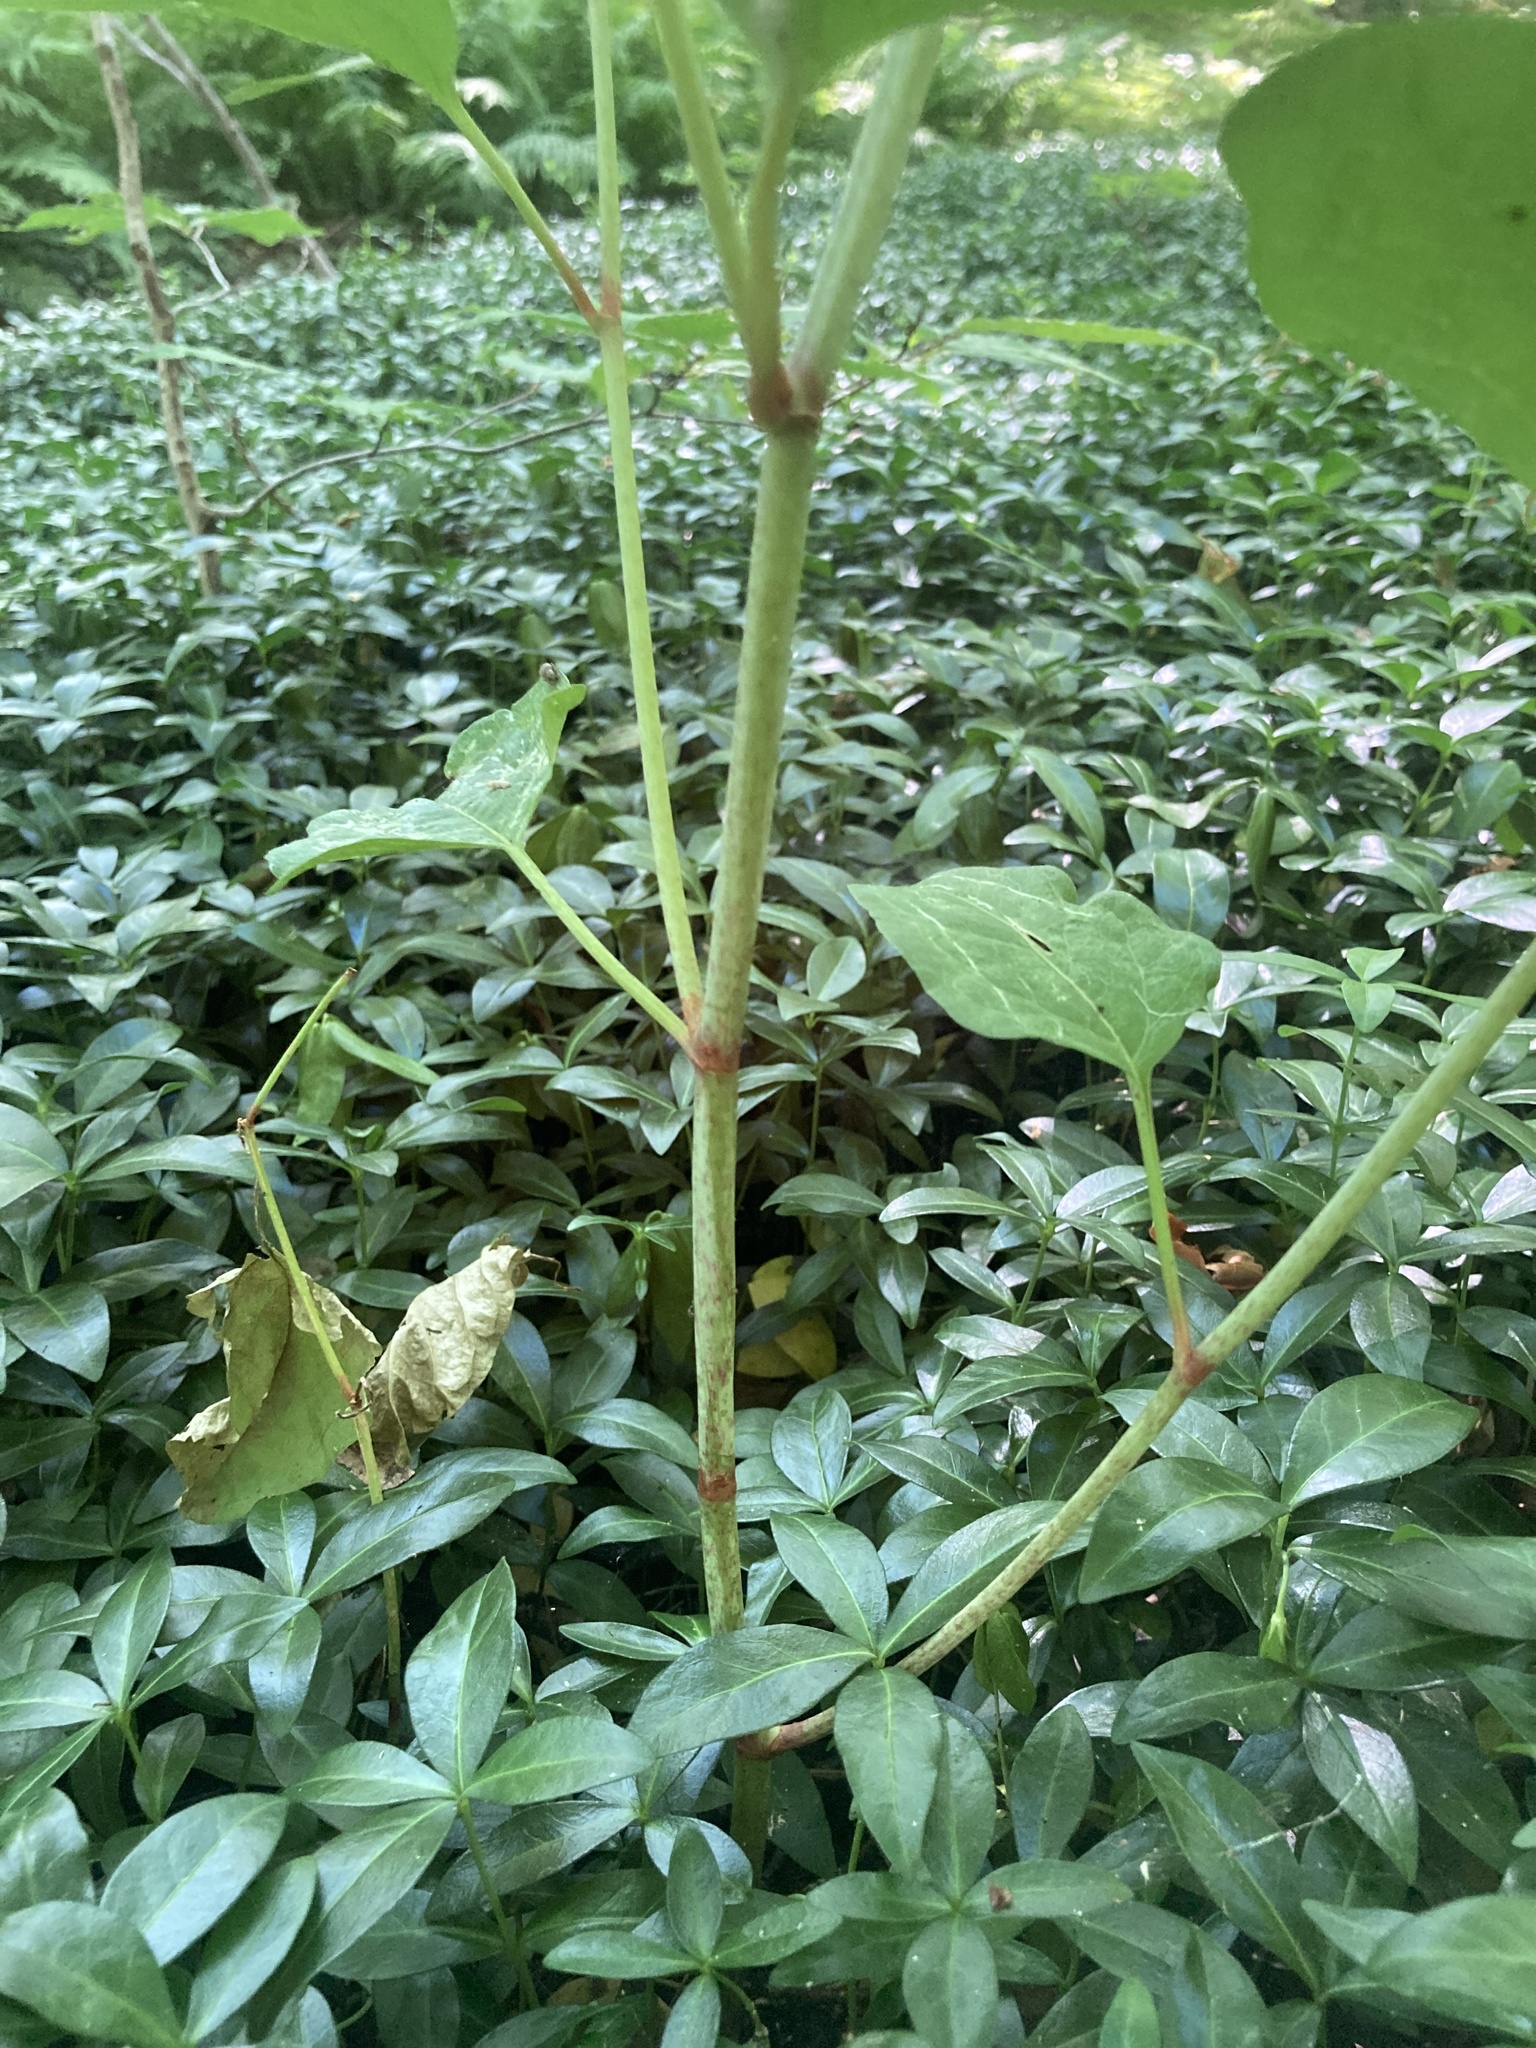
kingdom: Plantae
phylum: Tracheophyta
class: Magnoliopsida
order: Caryophyllales
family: Polygonaceae
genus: Reynoutria
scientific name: Reynoutria japonica
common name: Japanese knotweed
